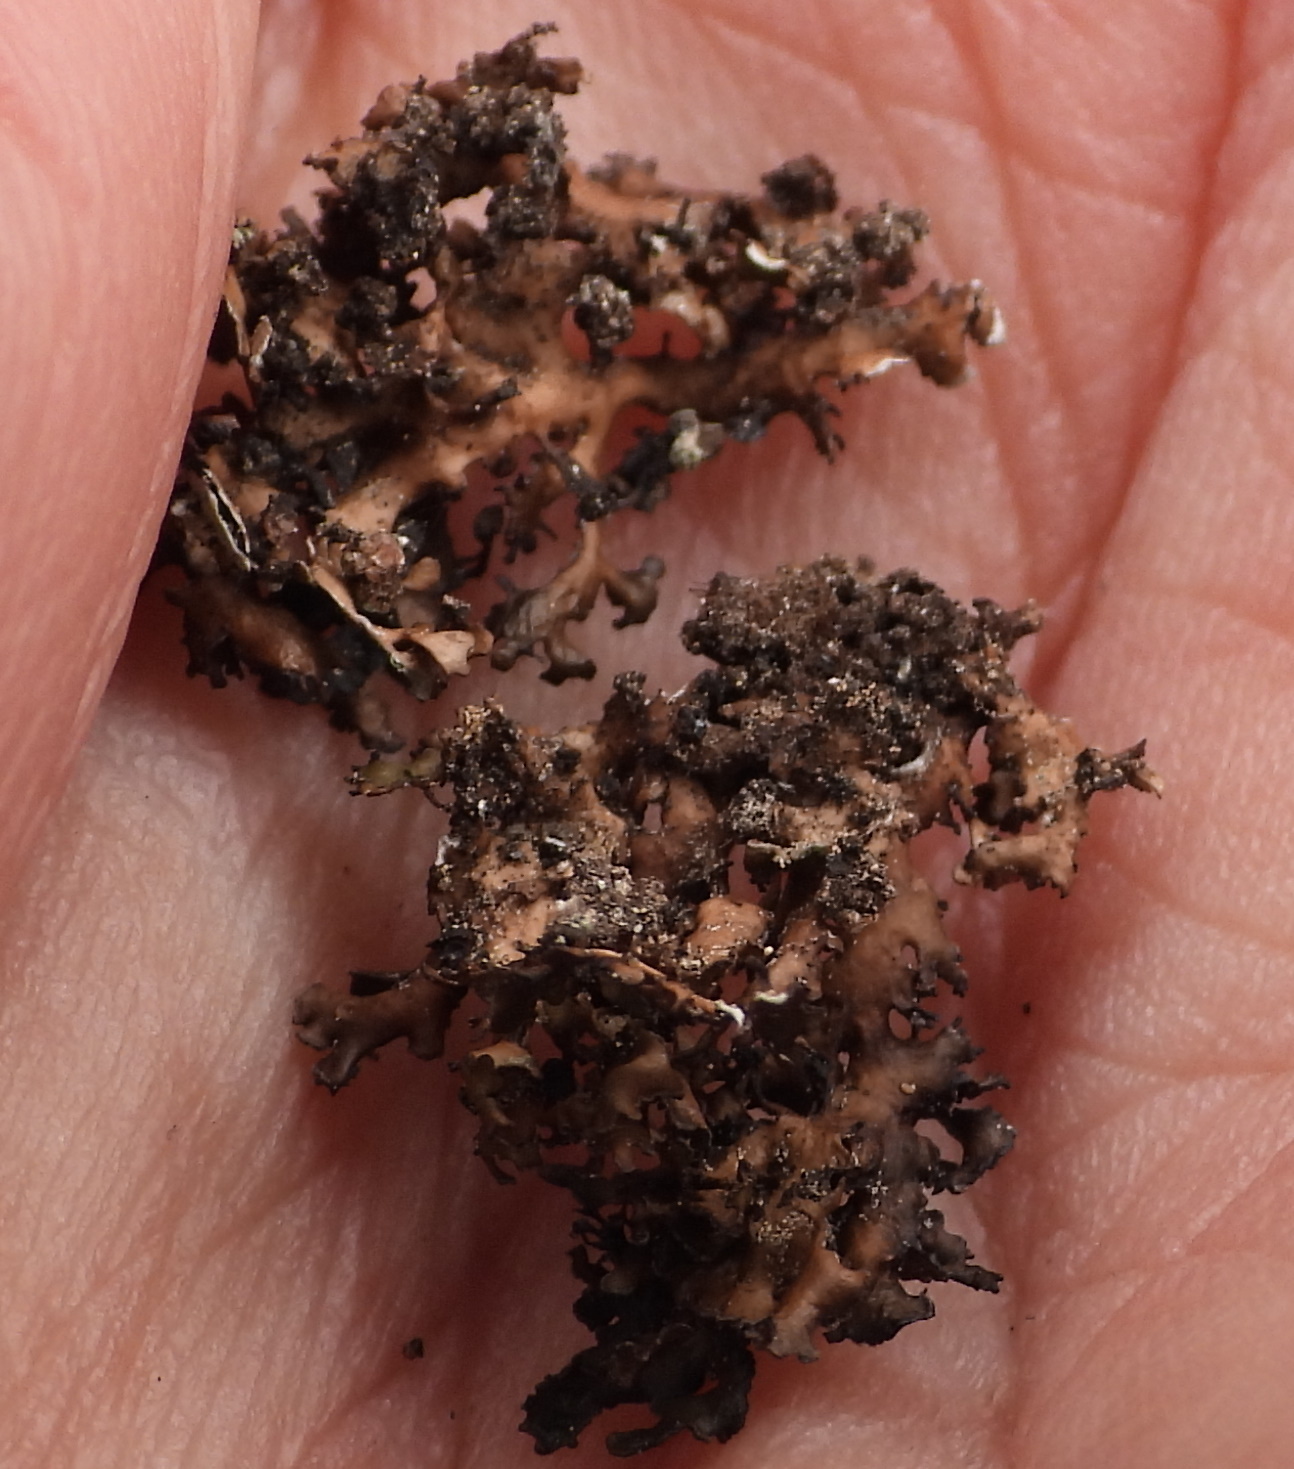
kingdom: Fungi
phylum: Ascomycota
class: Lecanoromycetes
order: Lecanorales
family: Parmeliaceae
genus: Melanelia
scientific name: Melanelia commixta
